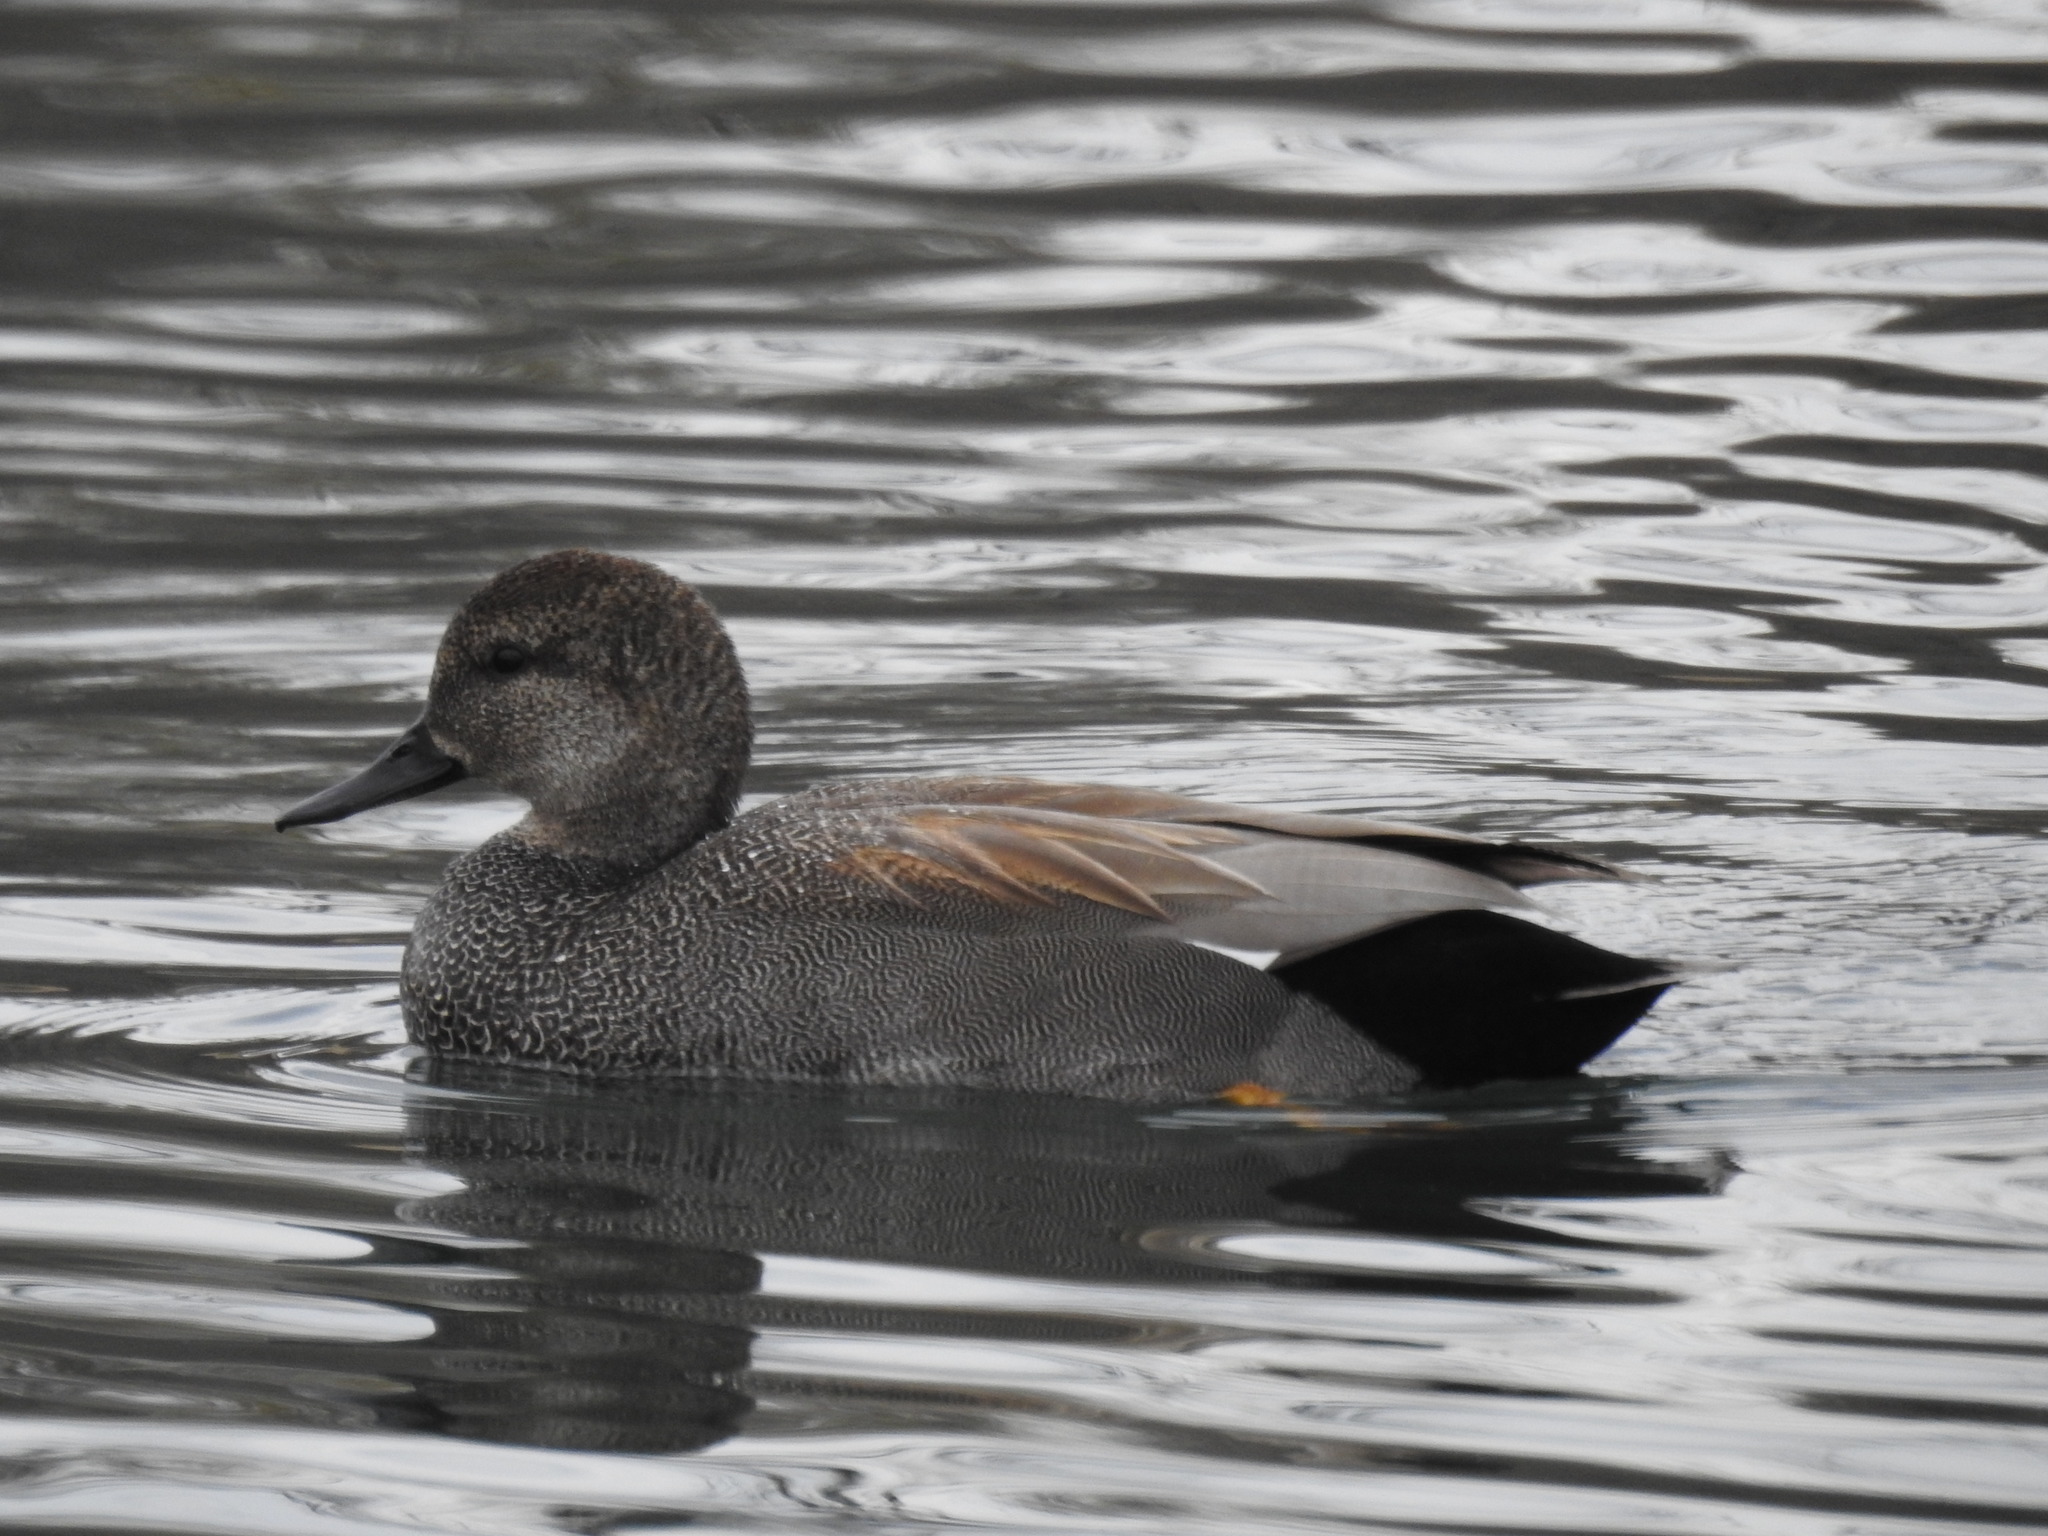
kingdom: Animalia
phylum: Chordata
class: Aves
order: Anseriformes
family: Anatidae
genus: Mareca
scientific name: Mareca strepera
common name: Gadwall
